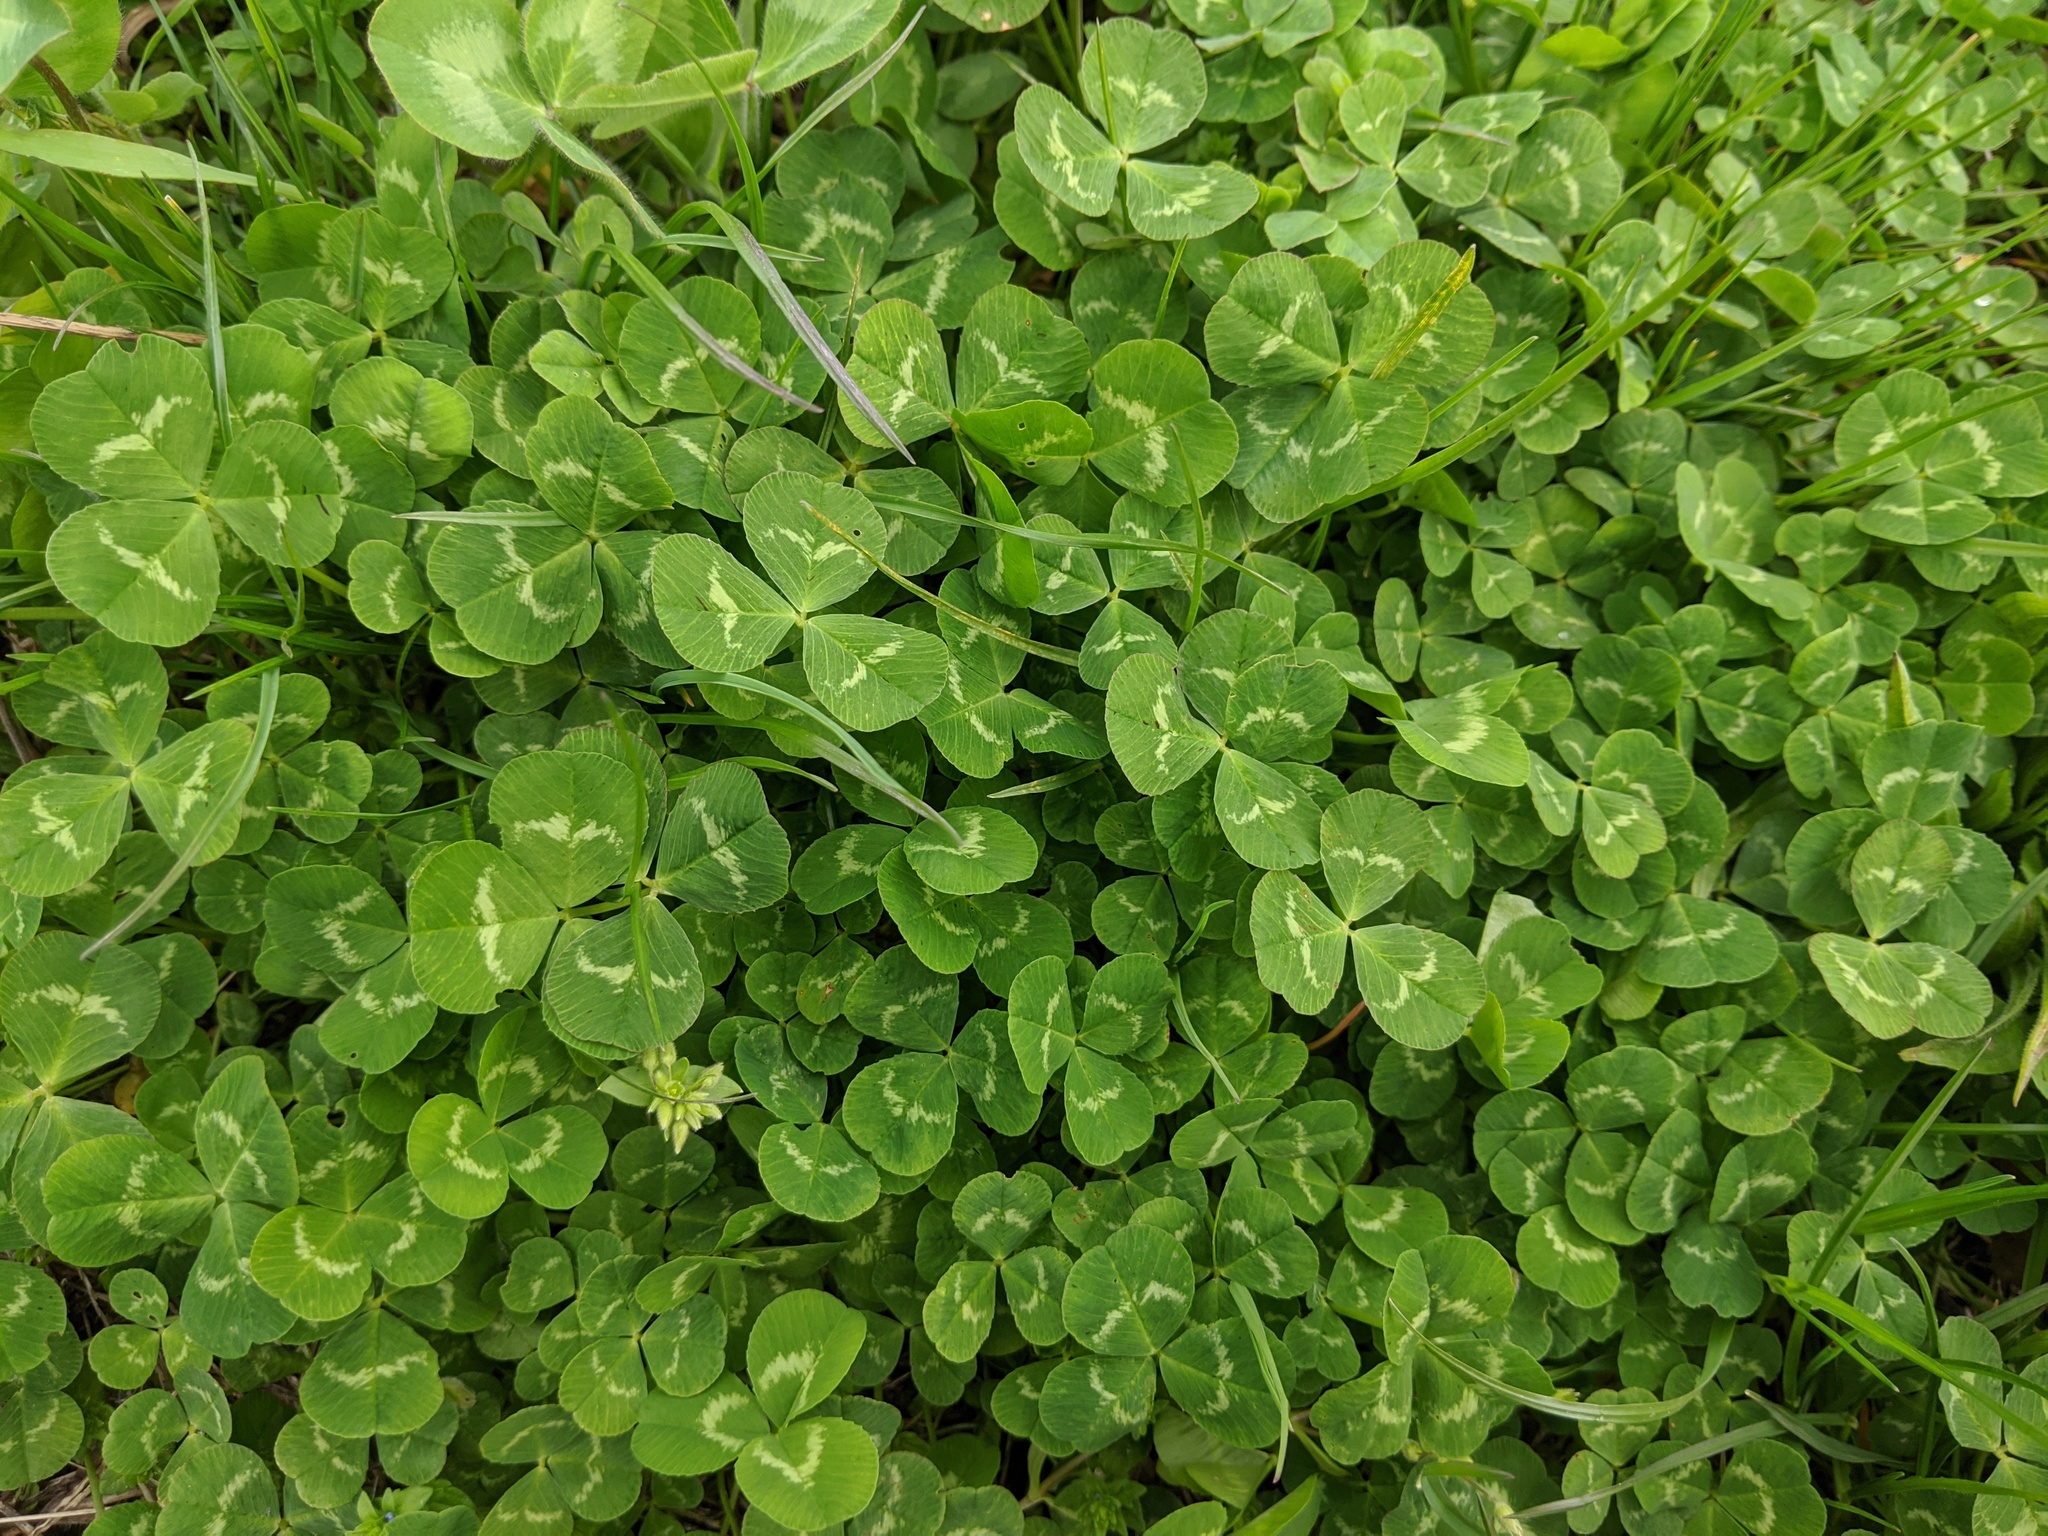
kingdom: Plantae
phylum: Tracheophyta
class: Magnoliopsida
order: Fabales
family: Fabaceae
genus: Trifolium
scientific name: Trifolium repens
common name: White clover
